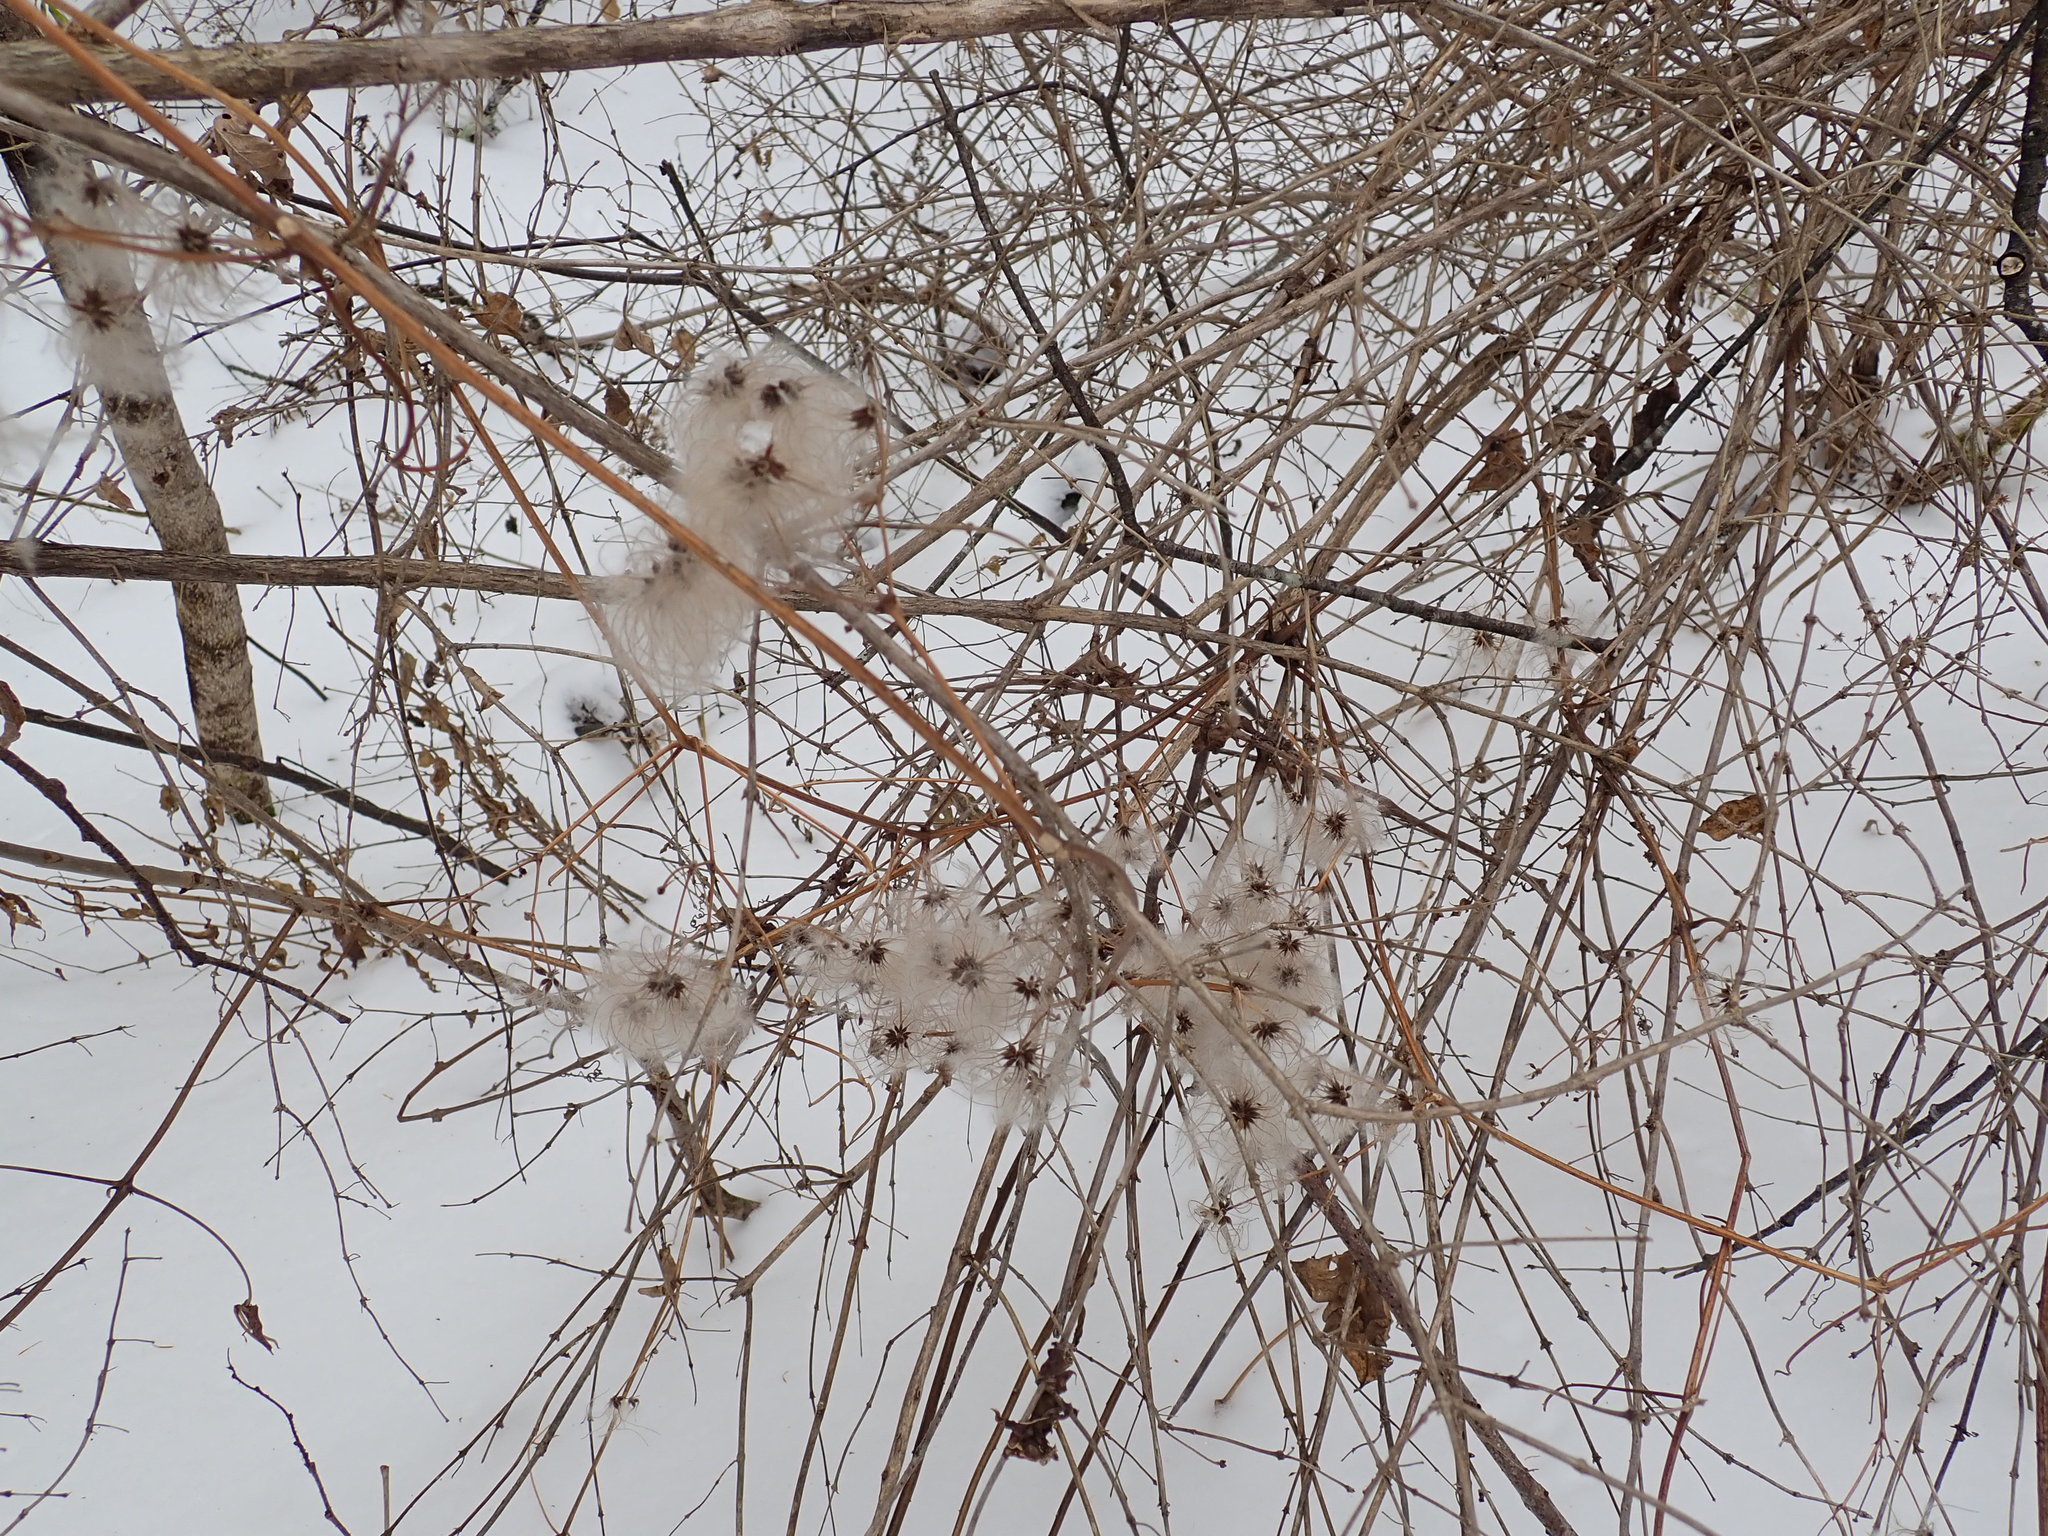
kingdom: Plantae
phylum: Tracheophyta
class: Magnoliopsida
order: Ranunculales
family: Ranunculaceae
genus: Clematis
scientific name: Clematis virginiana
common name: Virgin's-bower
